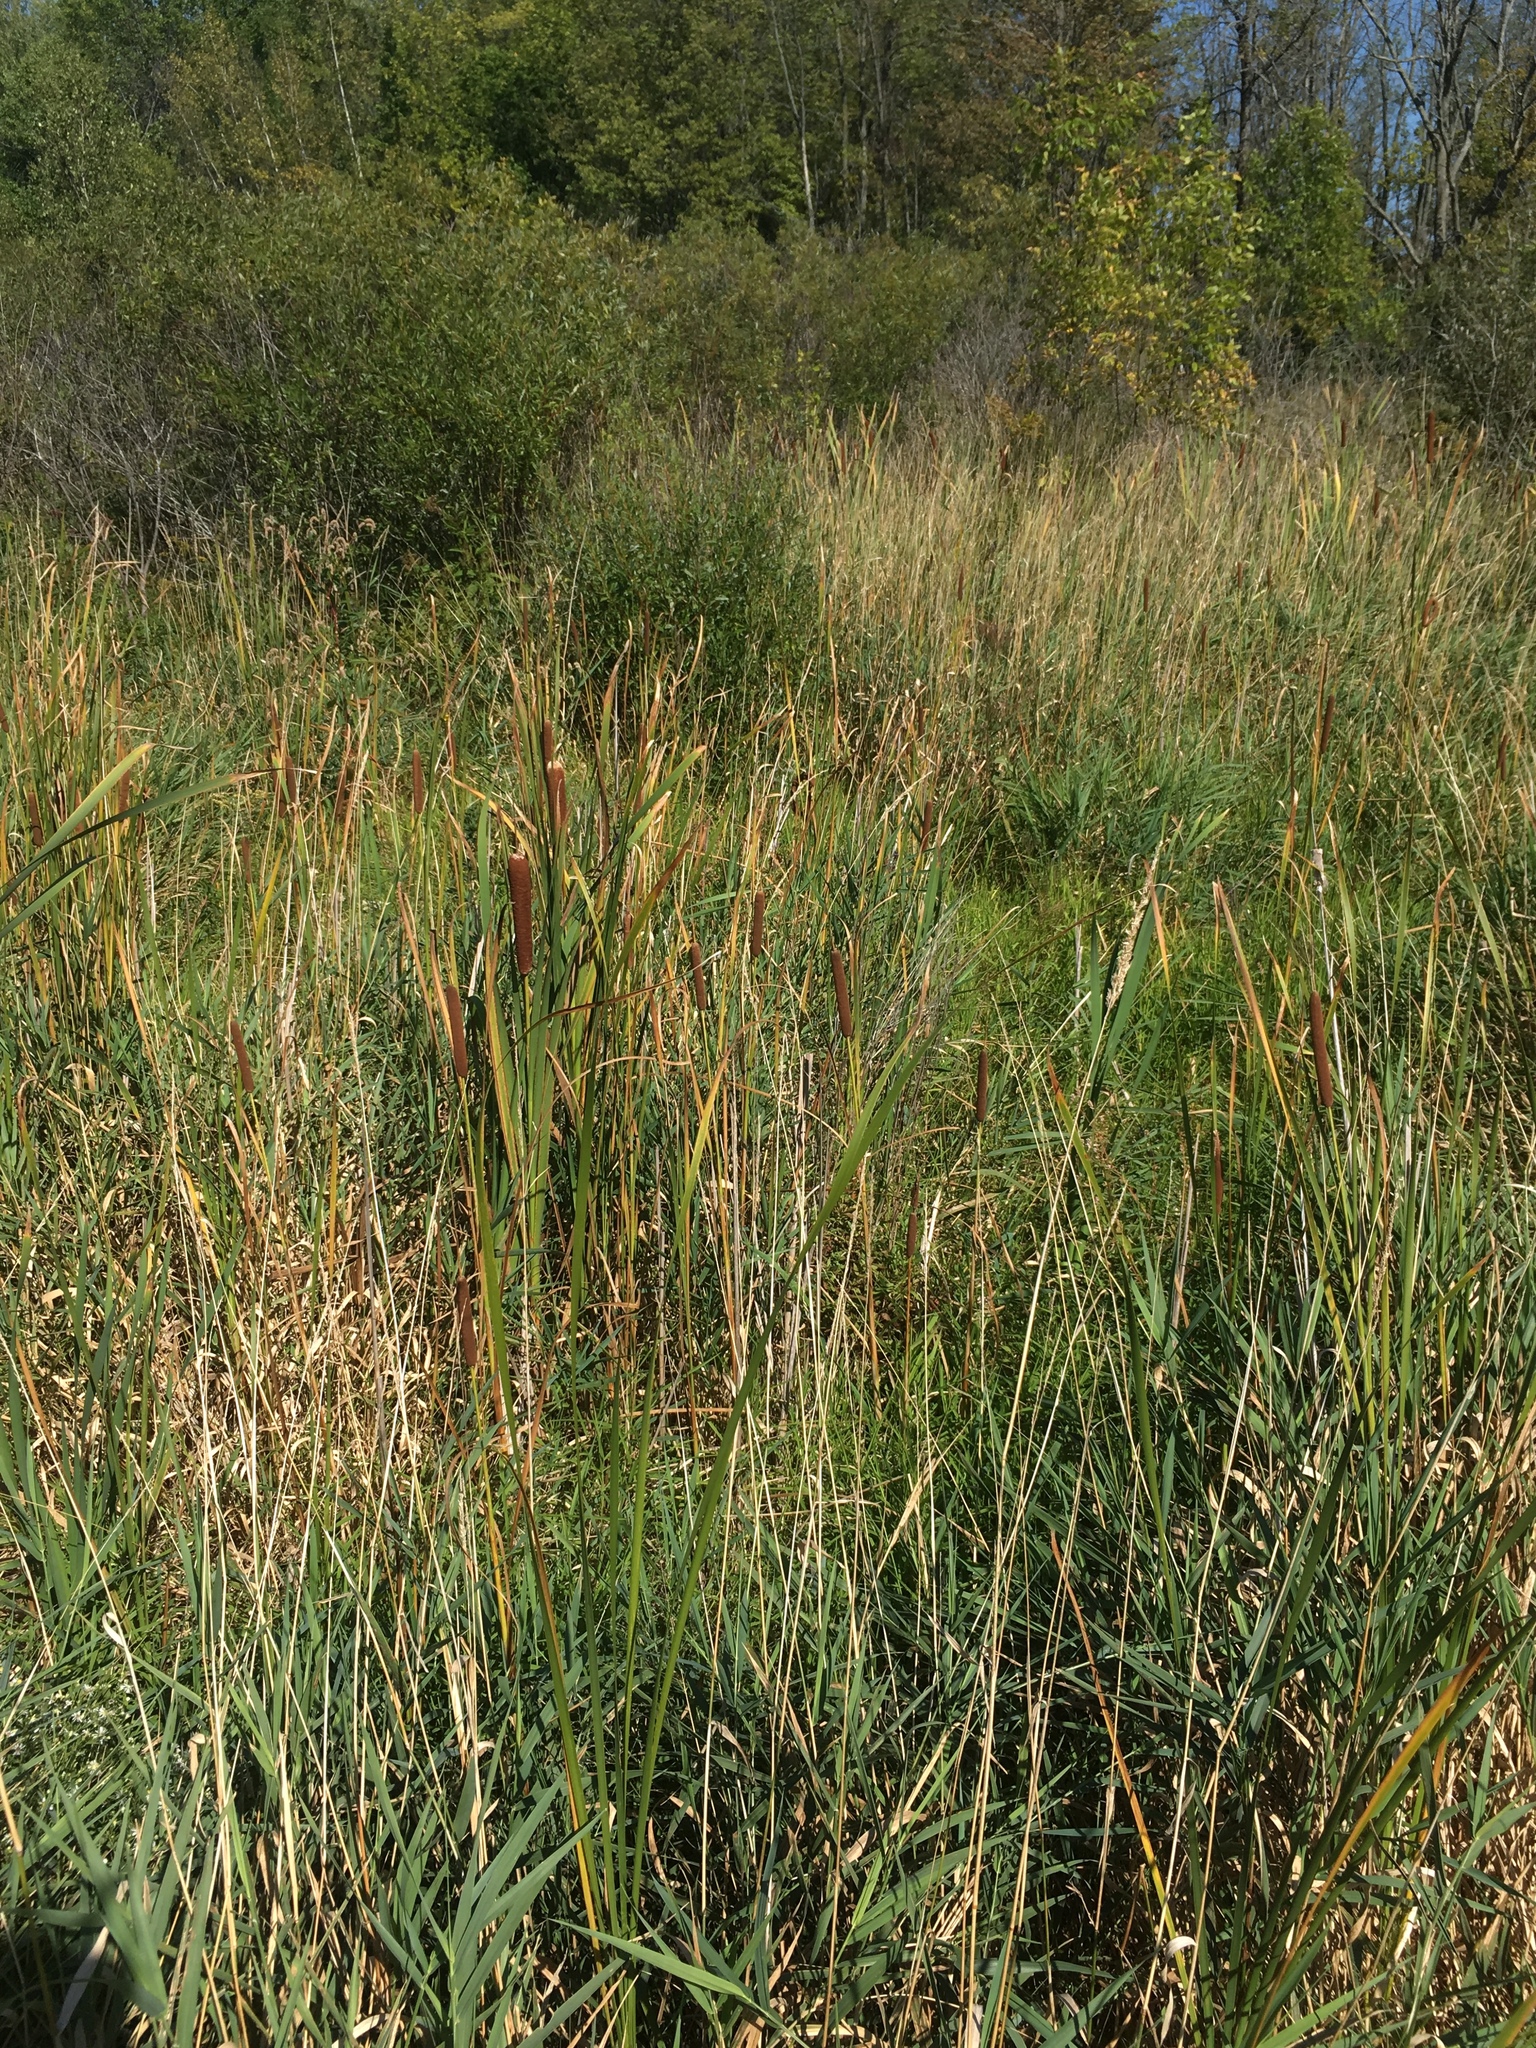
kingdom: Plantae
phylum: Tracheophyta
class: Liliopsida
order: Poales
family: Typhaceae
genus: Typha
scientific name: Typha latifolia
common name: Broadleaf cattail
